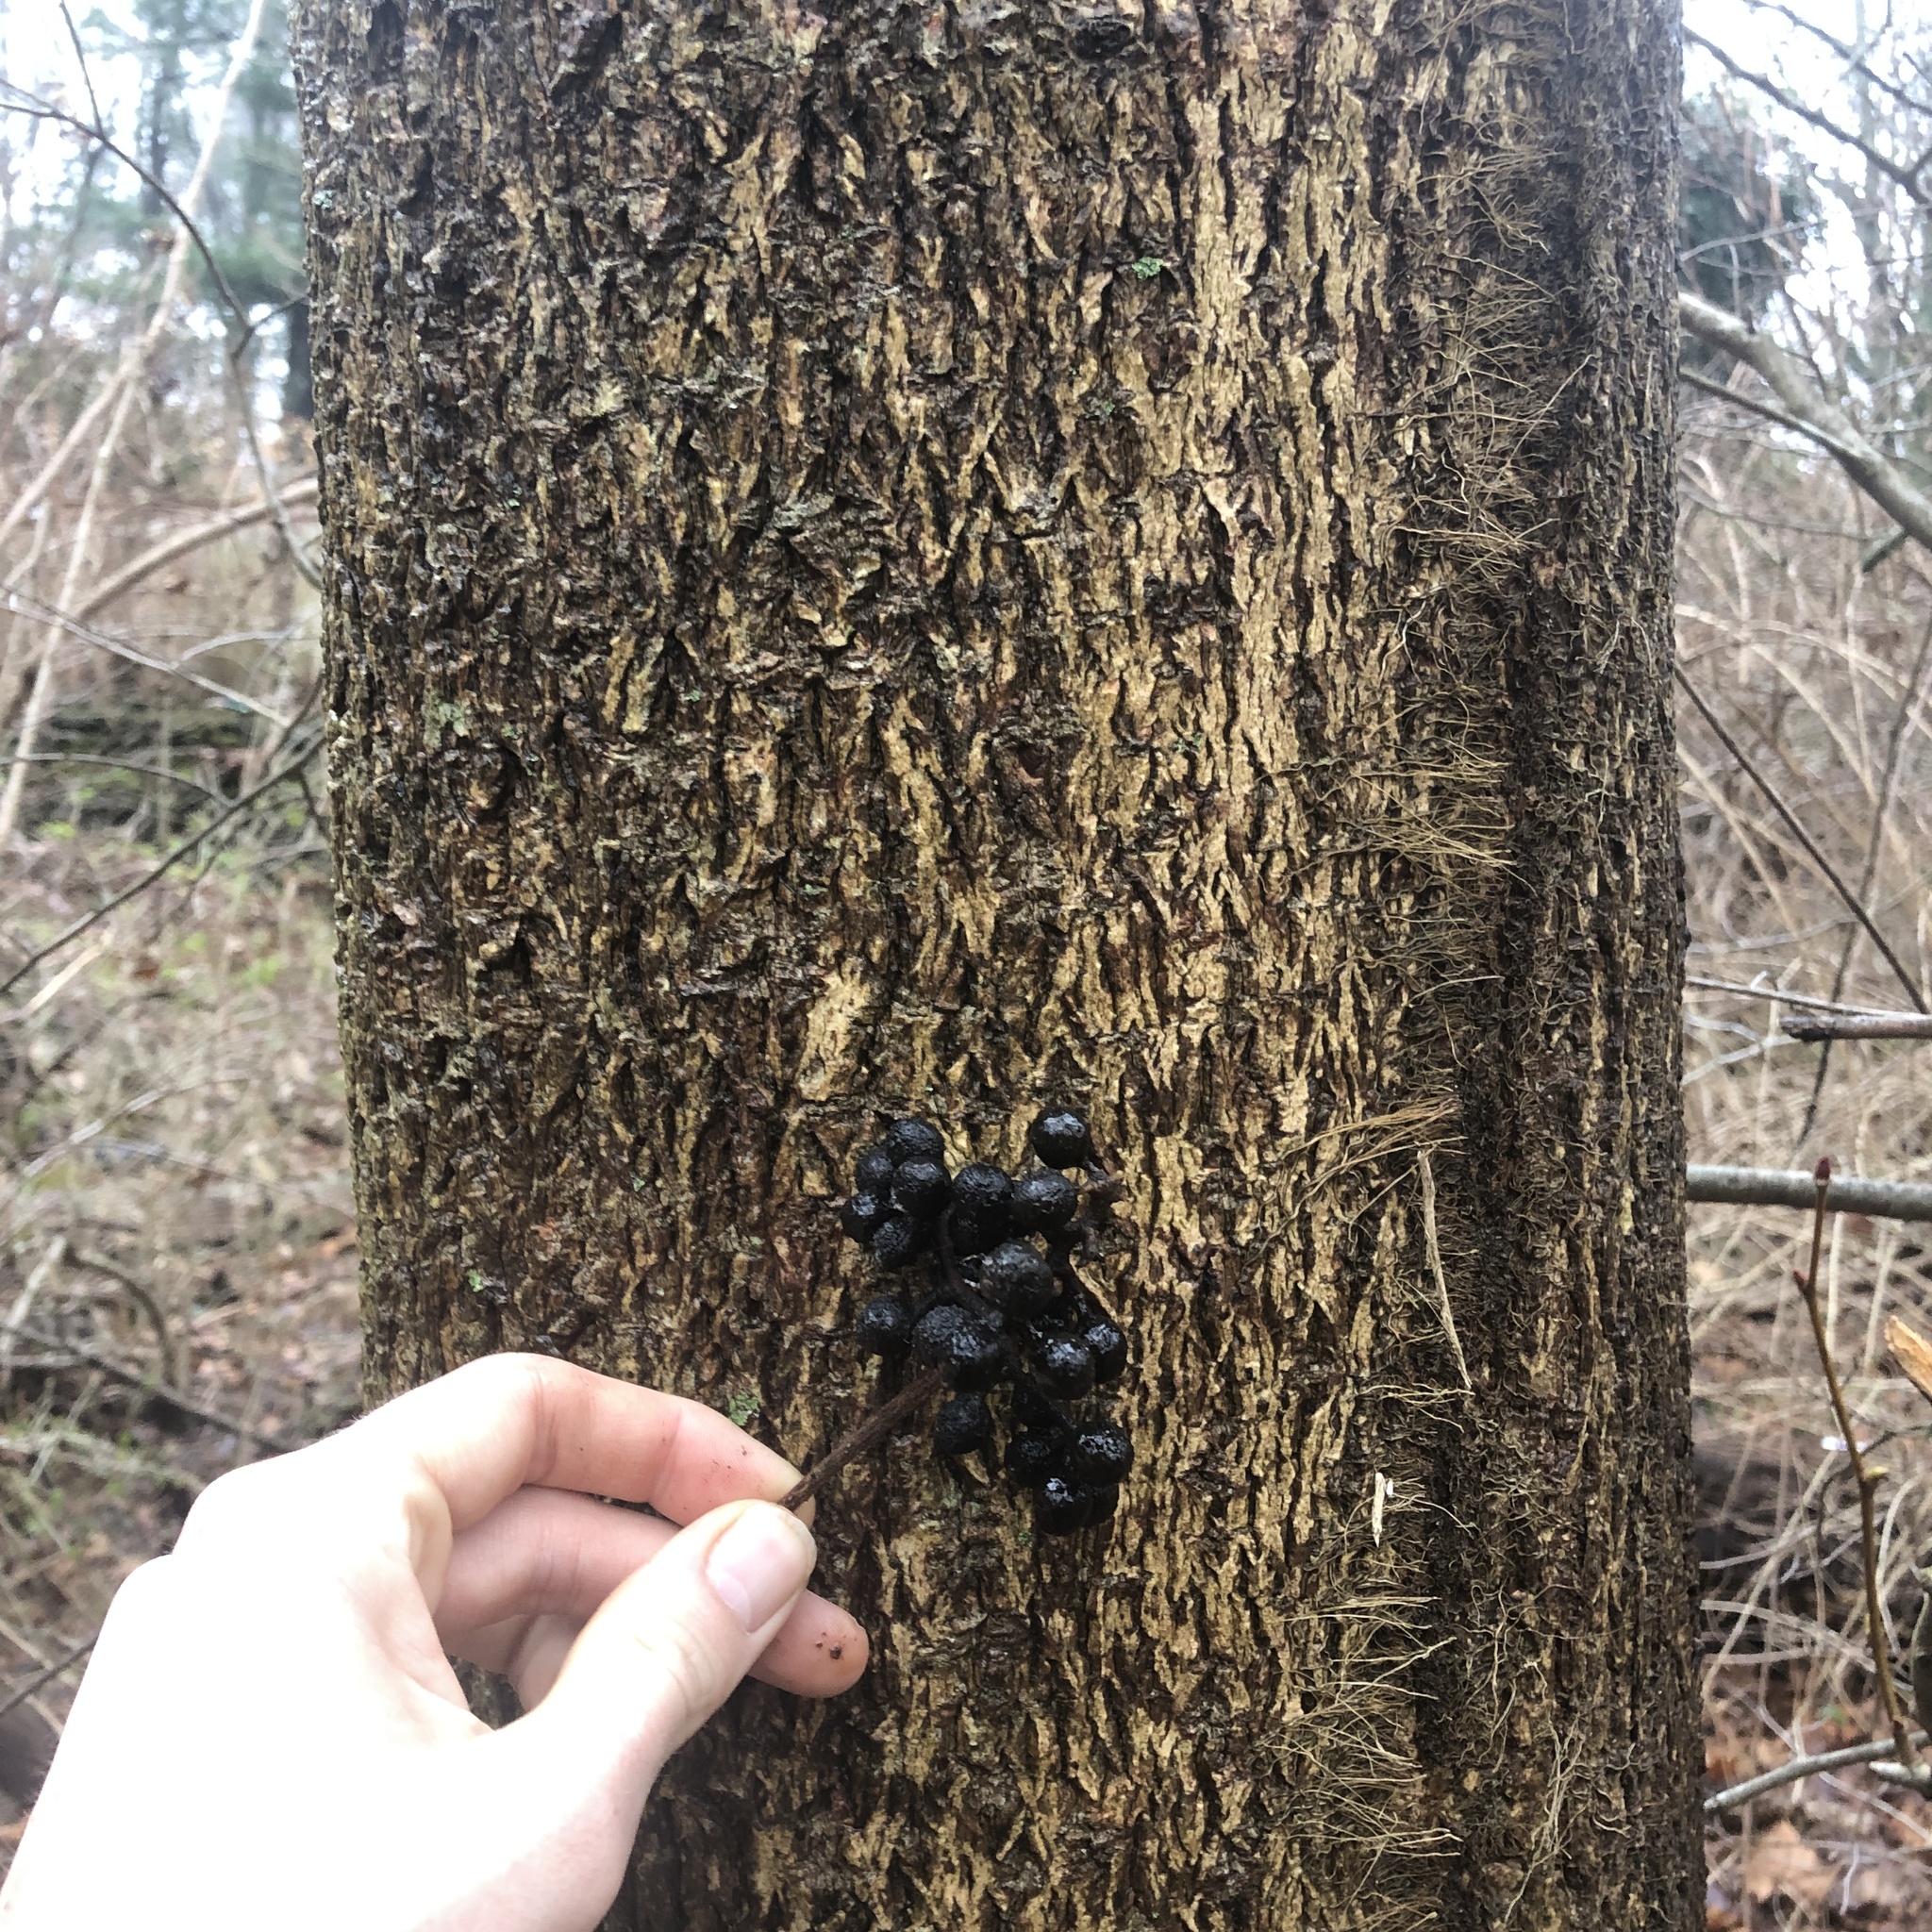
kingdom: Plantae
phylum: Tracheophyta
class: Magnoliopsida
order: Sapindales
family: Rutaceae
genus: Phellodendron
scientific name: Phellodendron amurense
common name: Amur corktree
